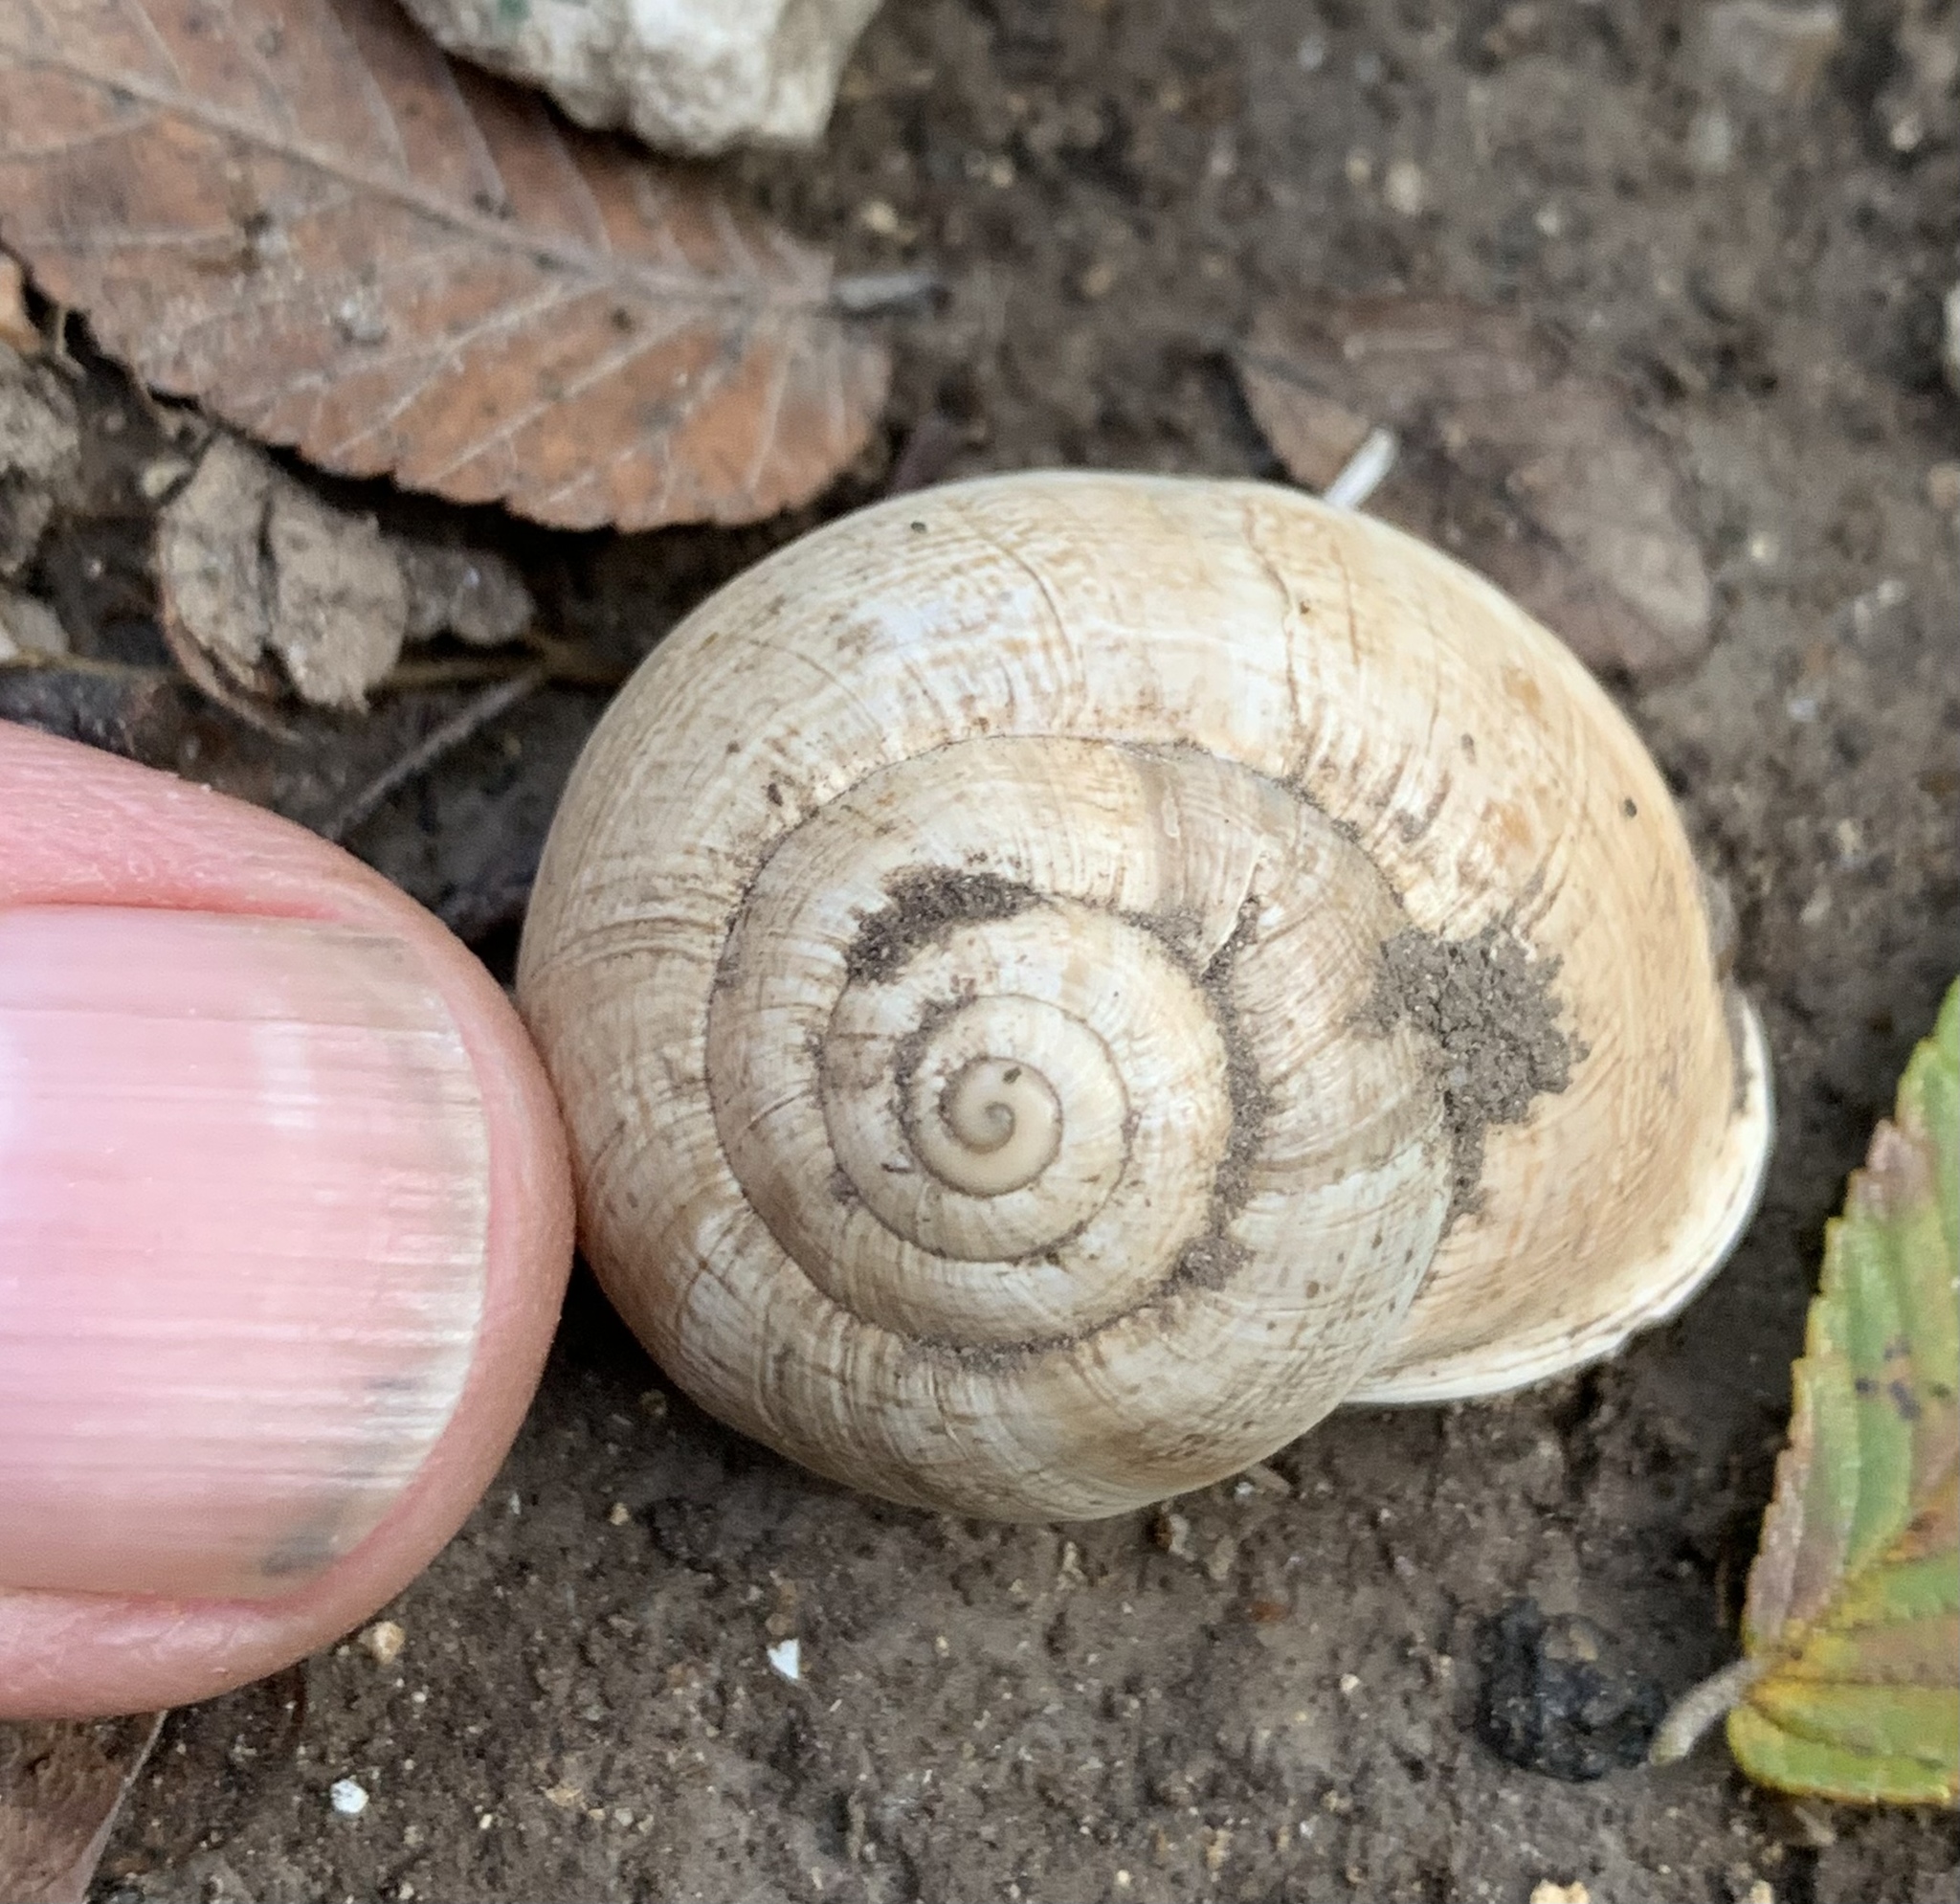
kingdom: Animalia
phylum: Mollusca
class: Gastropoda
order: Stylommatophora
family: Helicidae
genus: Otala
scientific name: Otala lactea
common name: Milk snail
